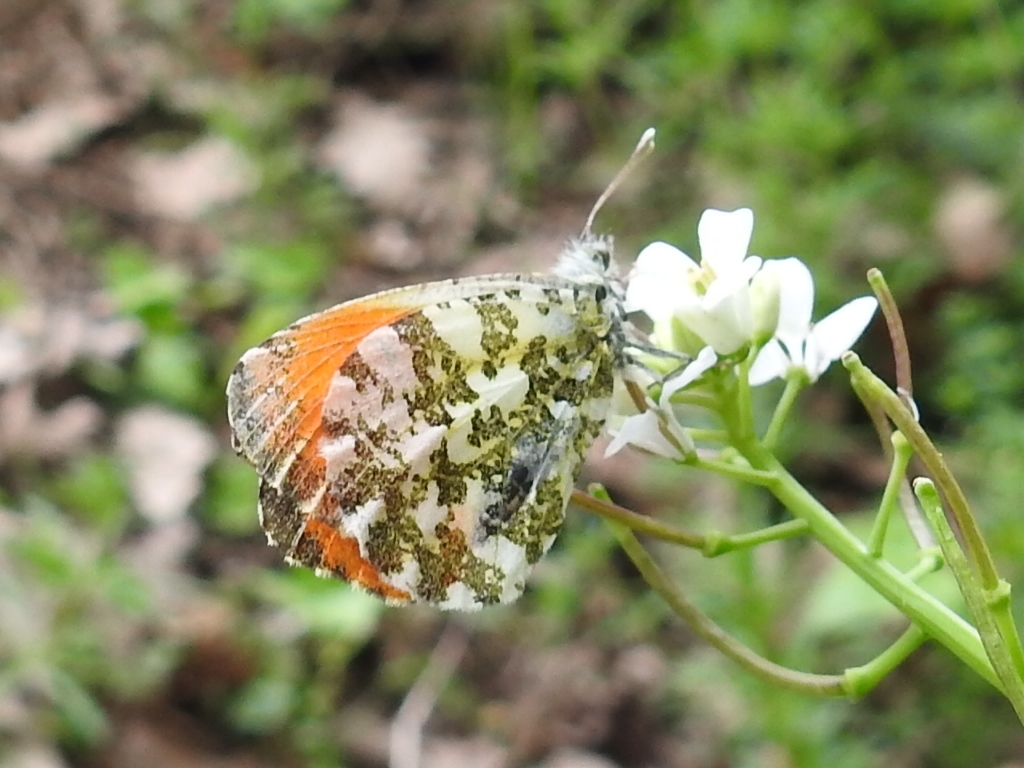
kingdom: Animalia
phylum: Arthropoda
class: Insecta
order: Lepidoptera
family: Pieridae
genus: Anthocharis
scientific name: Anthocharis cardamines
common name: Orange-tip
